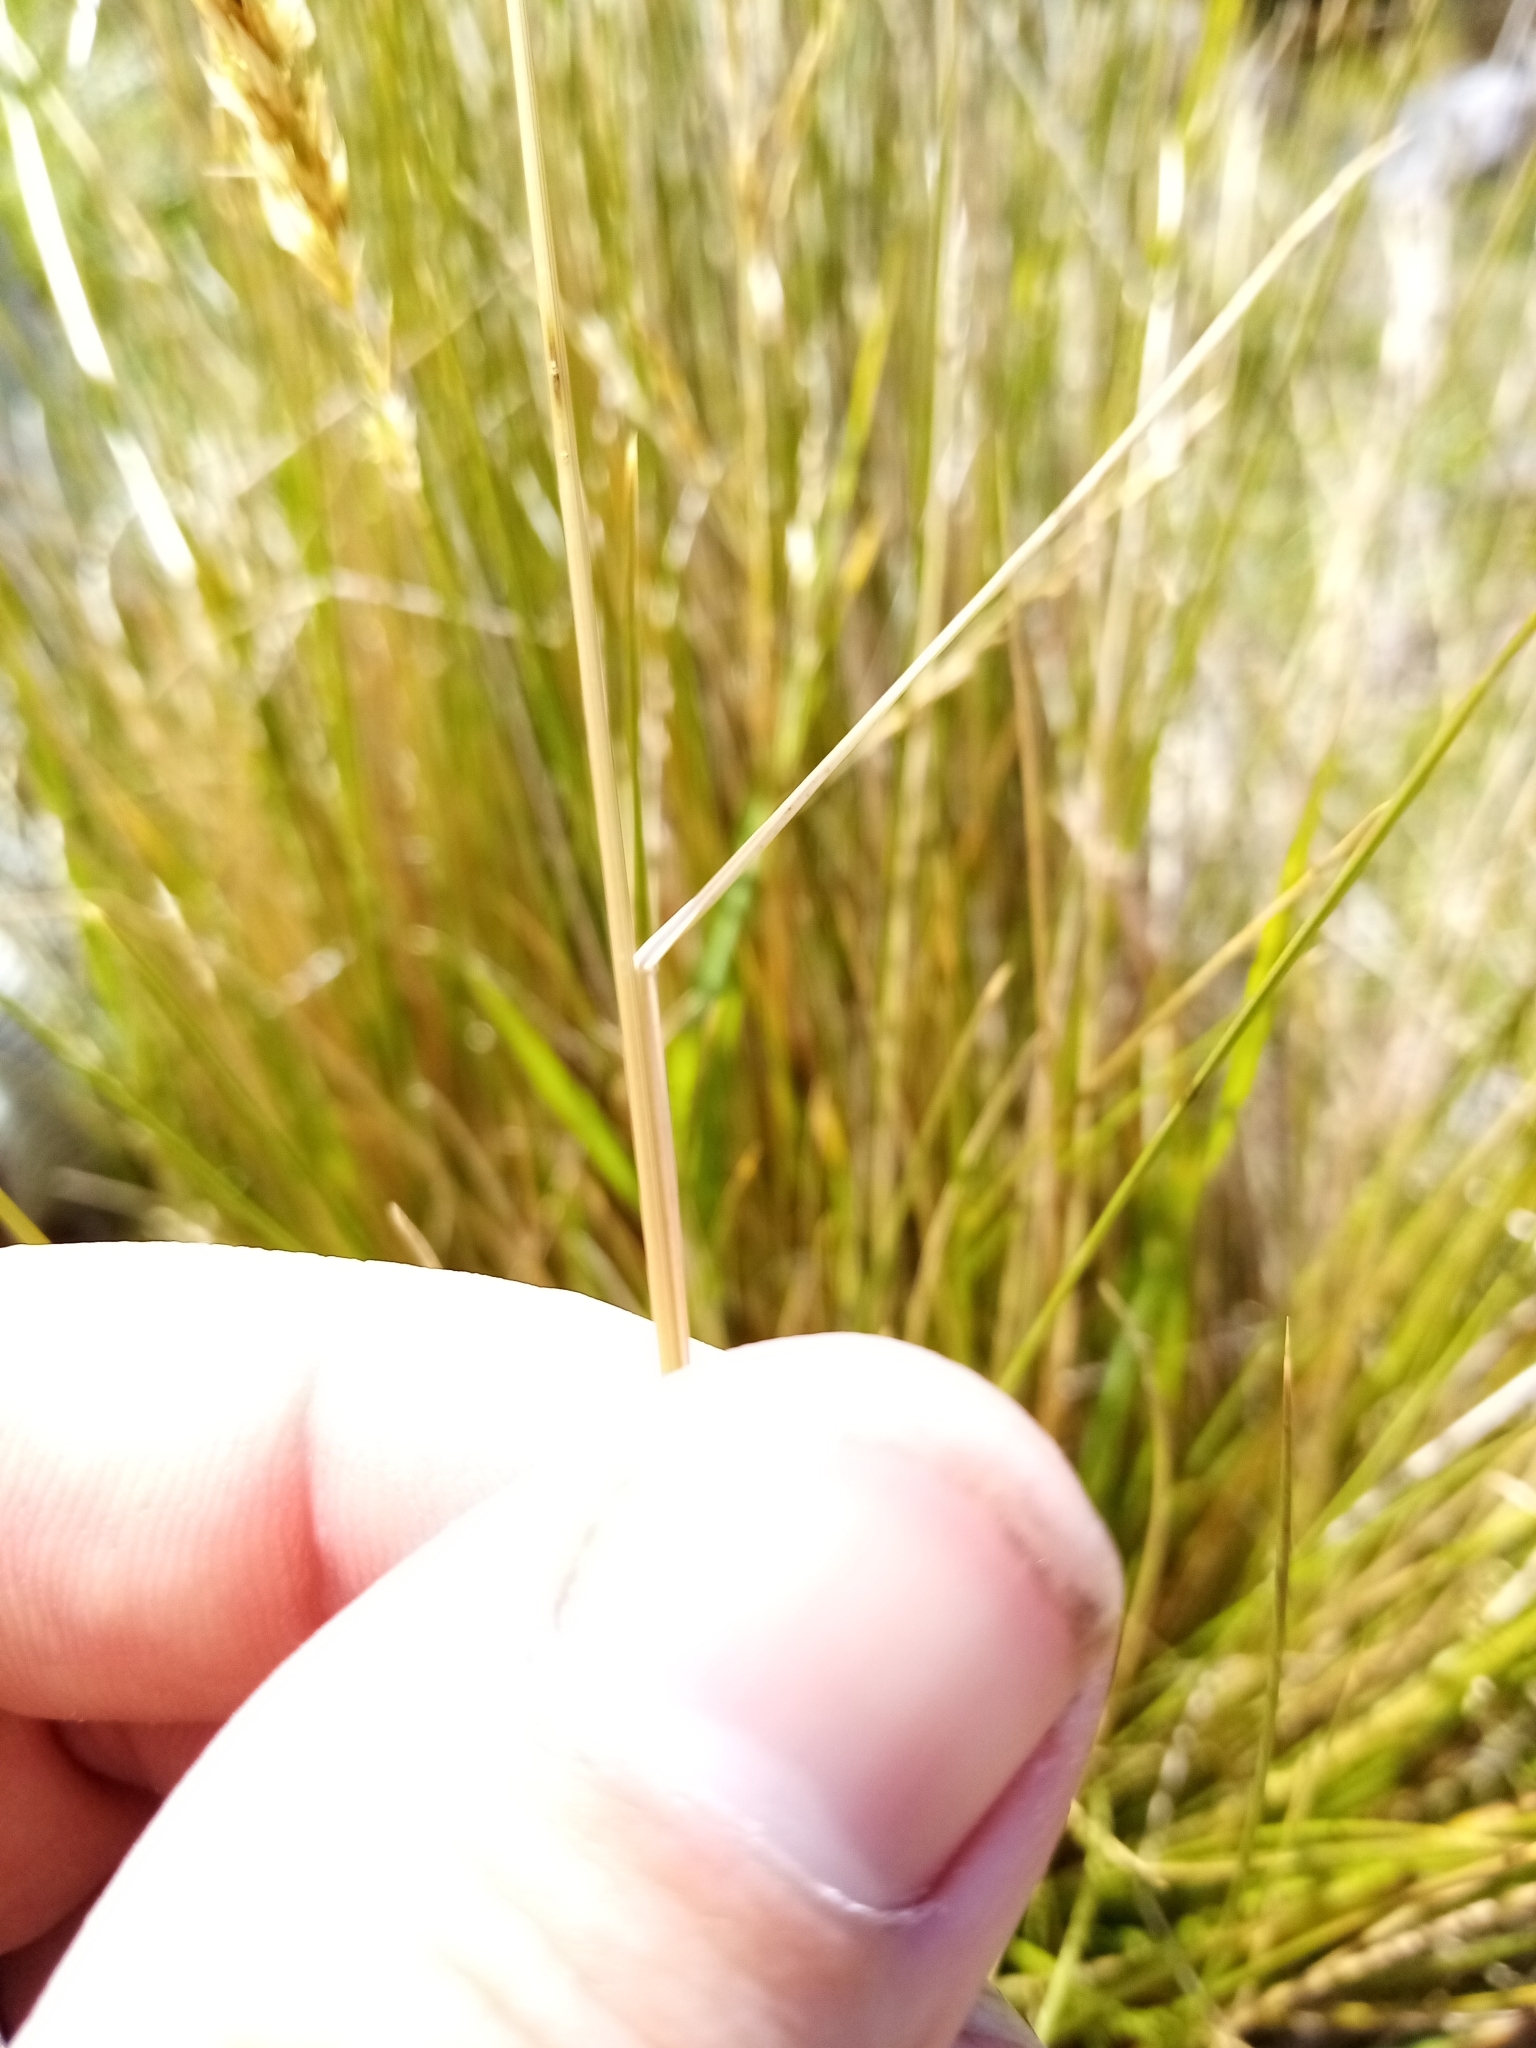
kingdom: Plantae
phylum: Tracheophyta
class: Liliopsida
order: Poales
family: Poaceae
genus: Poa
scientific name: Poa cita
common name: Silver tussock
